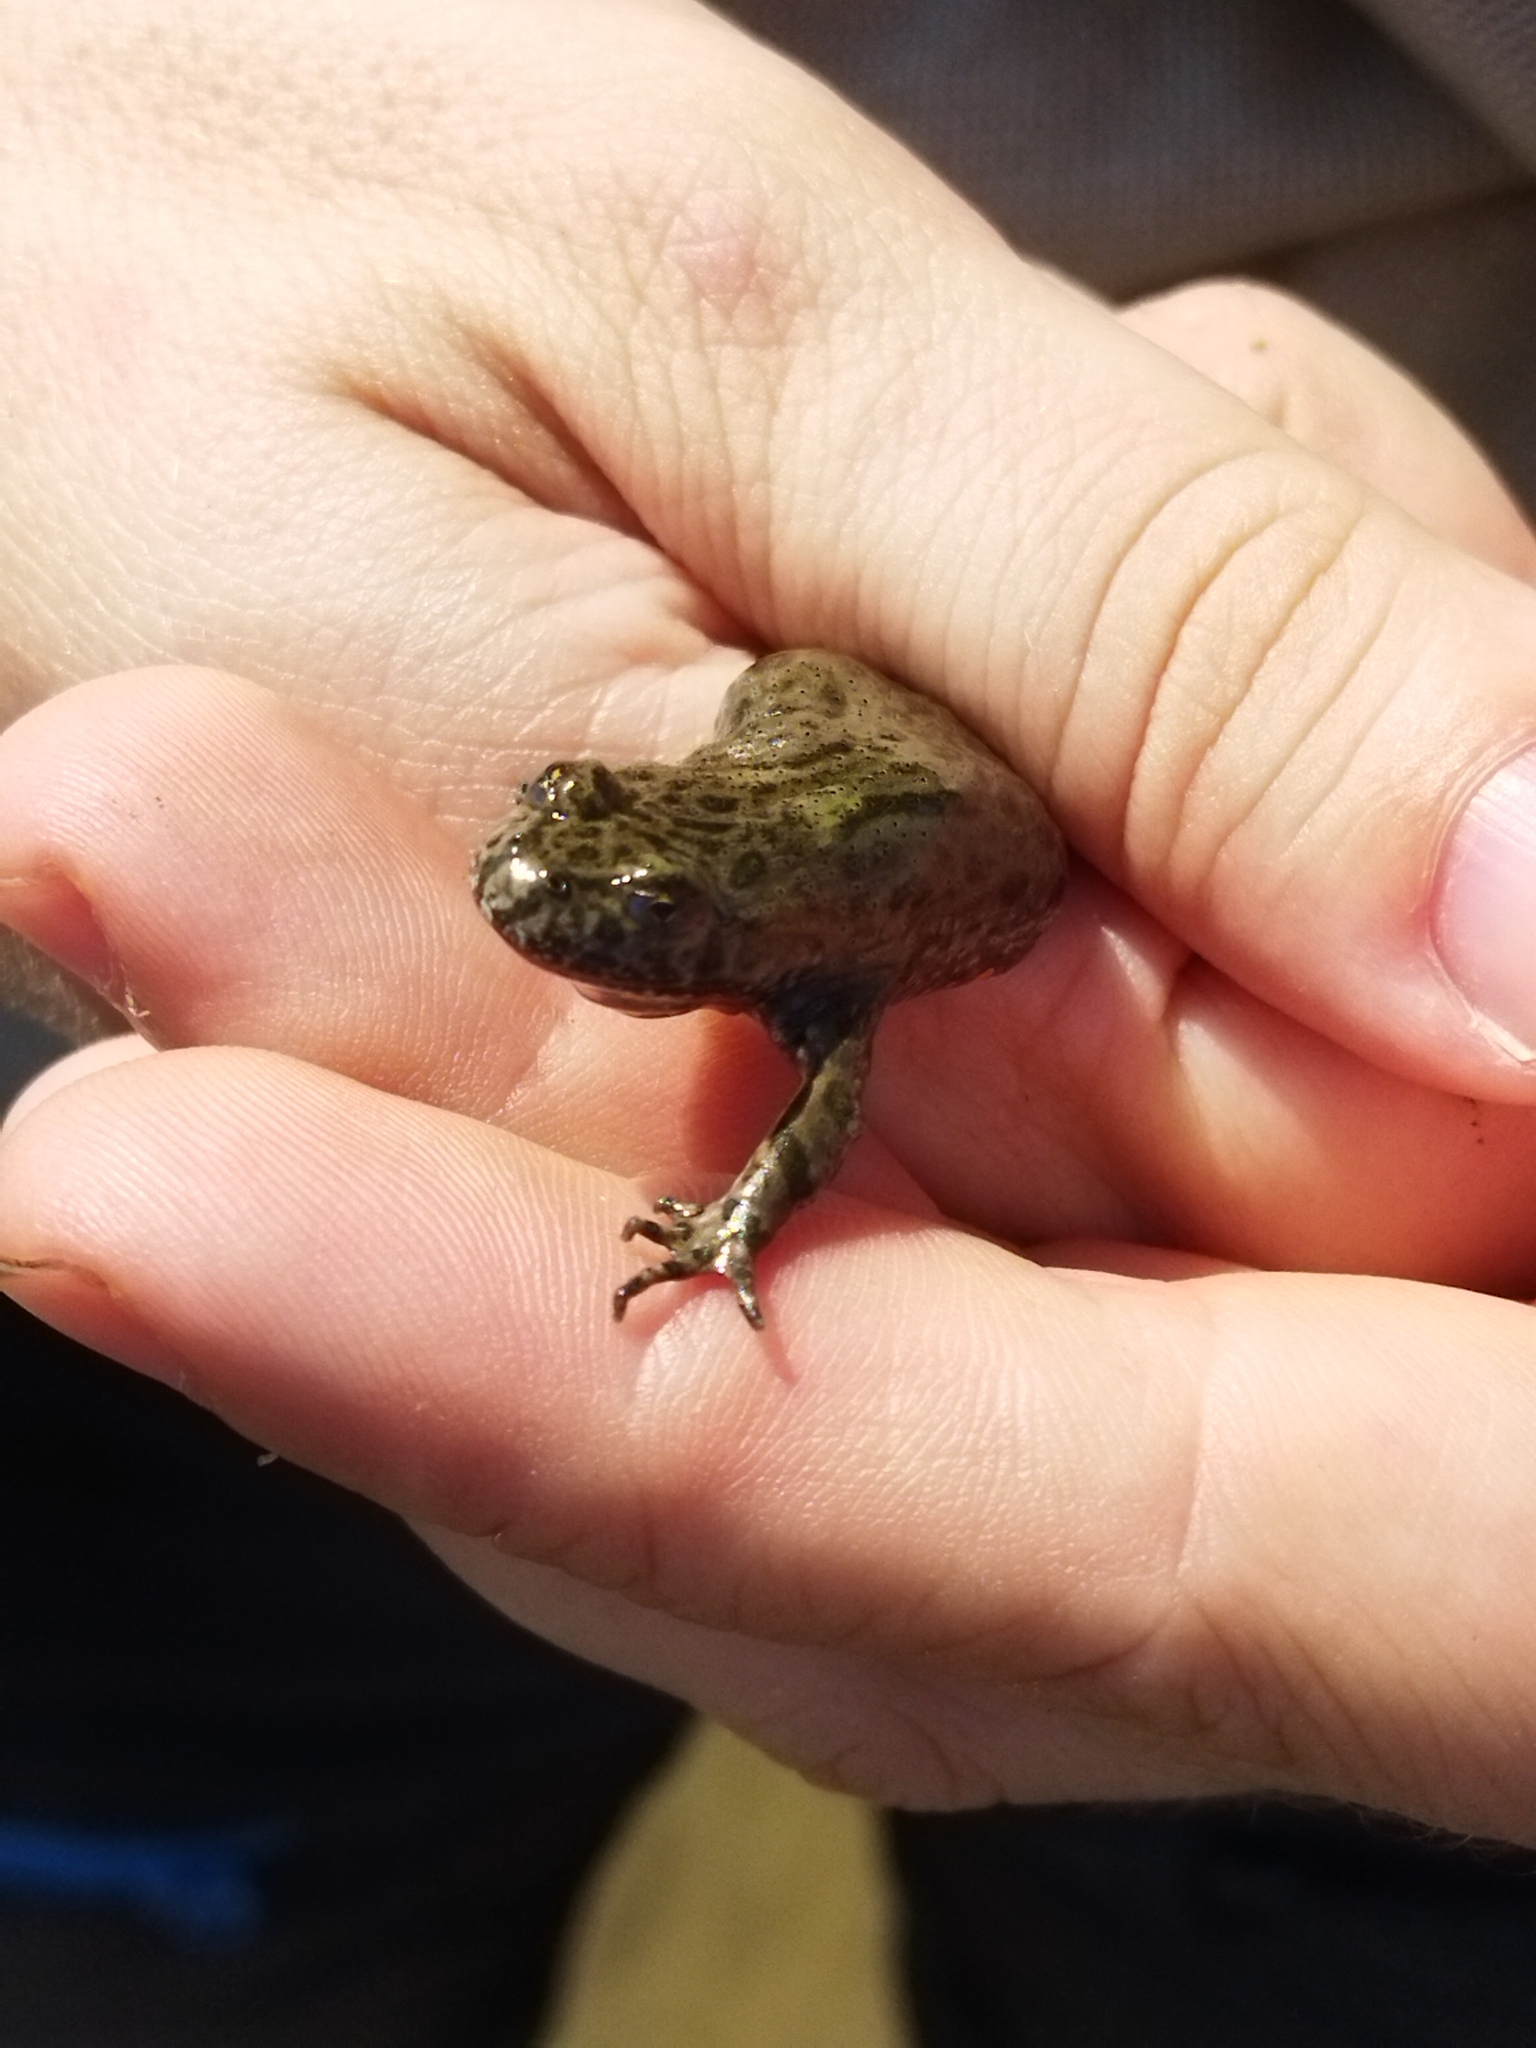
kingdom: Animalia
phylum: Chordata
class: Amphibia
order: Anura
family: Bombinatoridae
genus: Bombina
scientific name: Bombina bombina
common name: Fire-bellied toad
